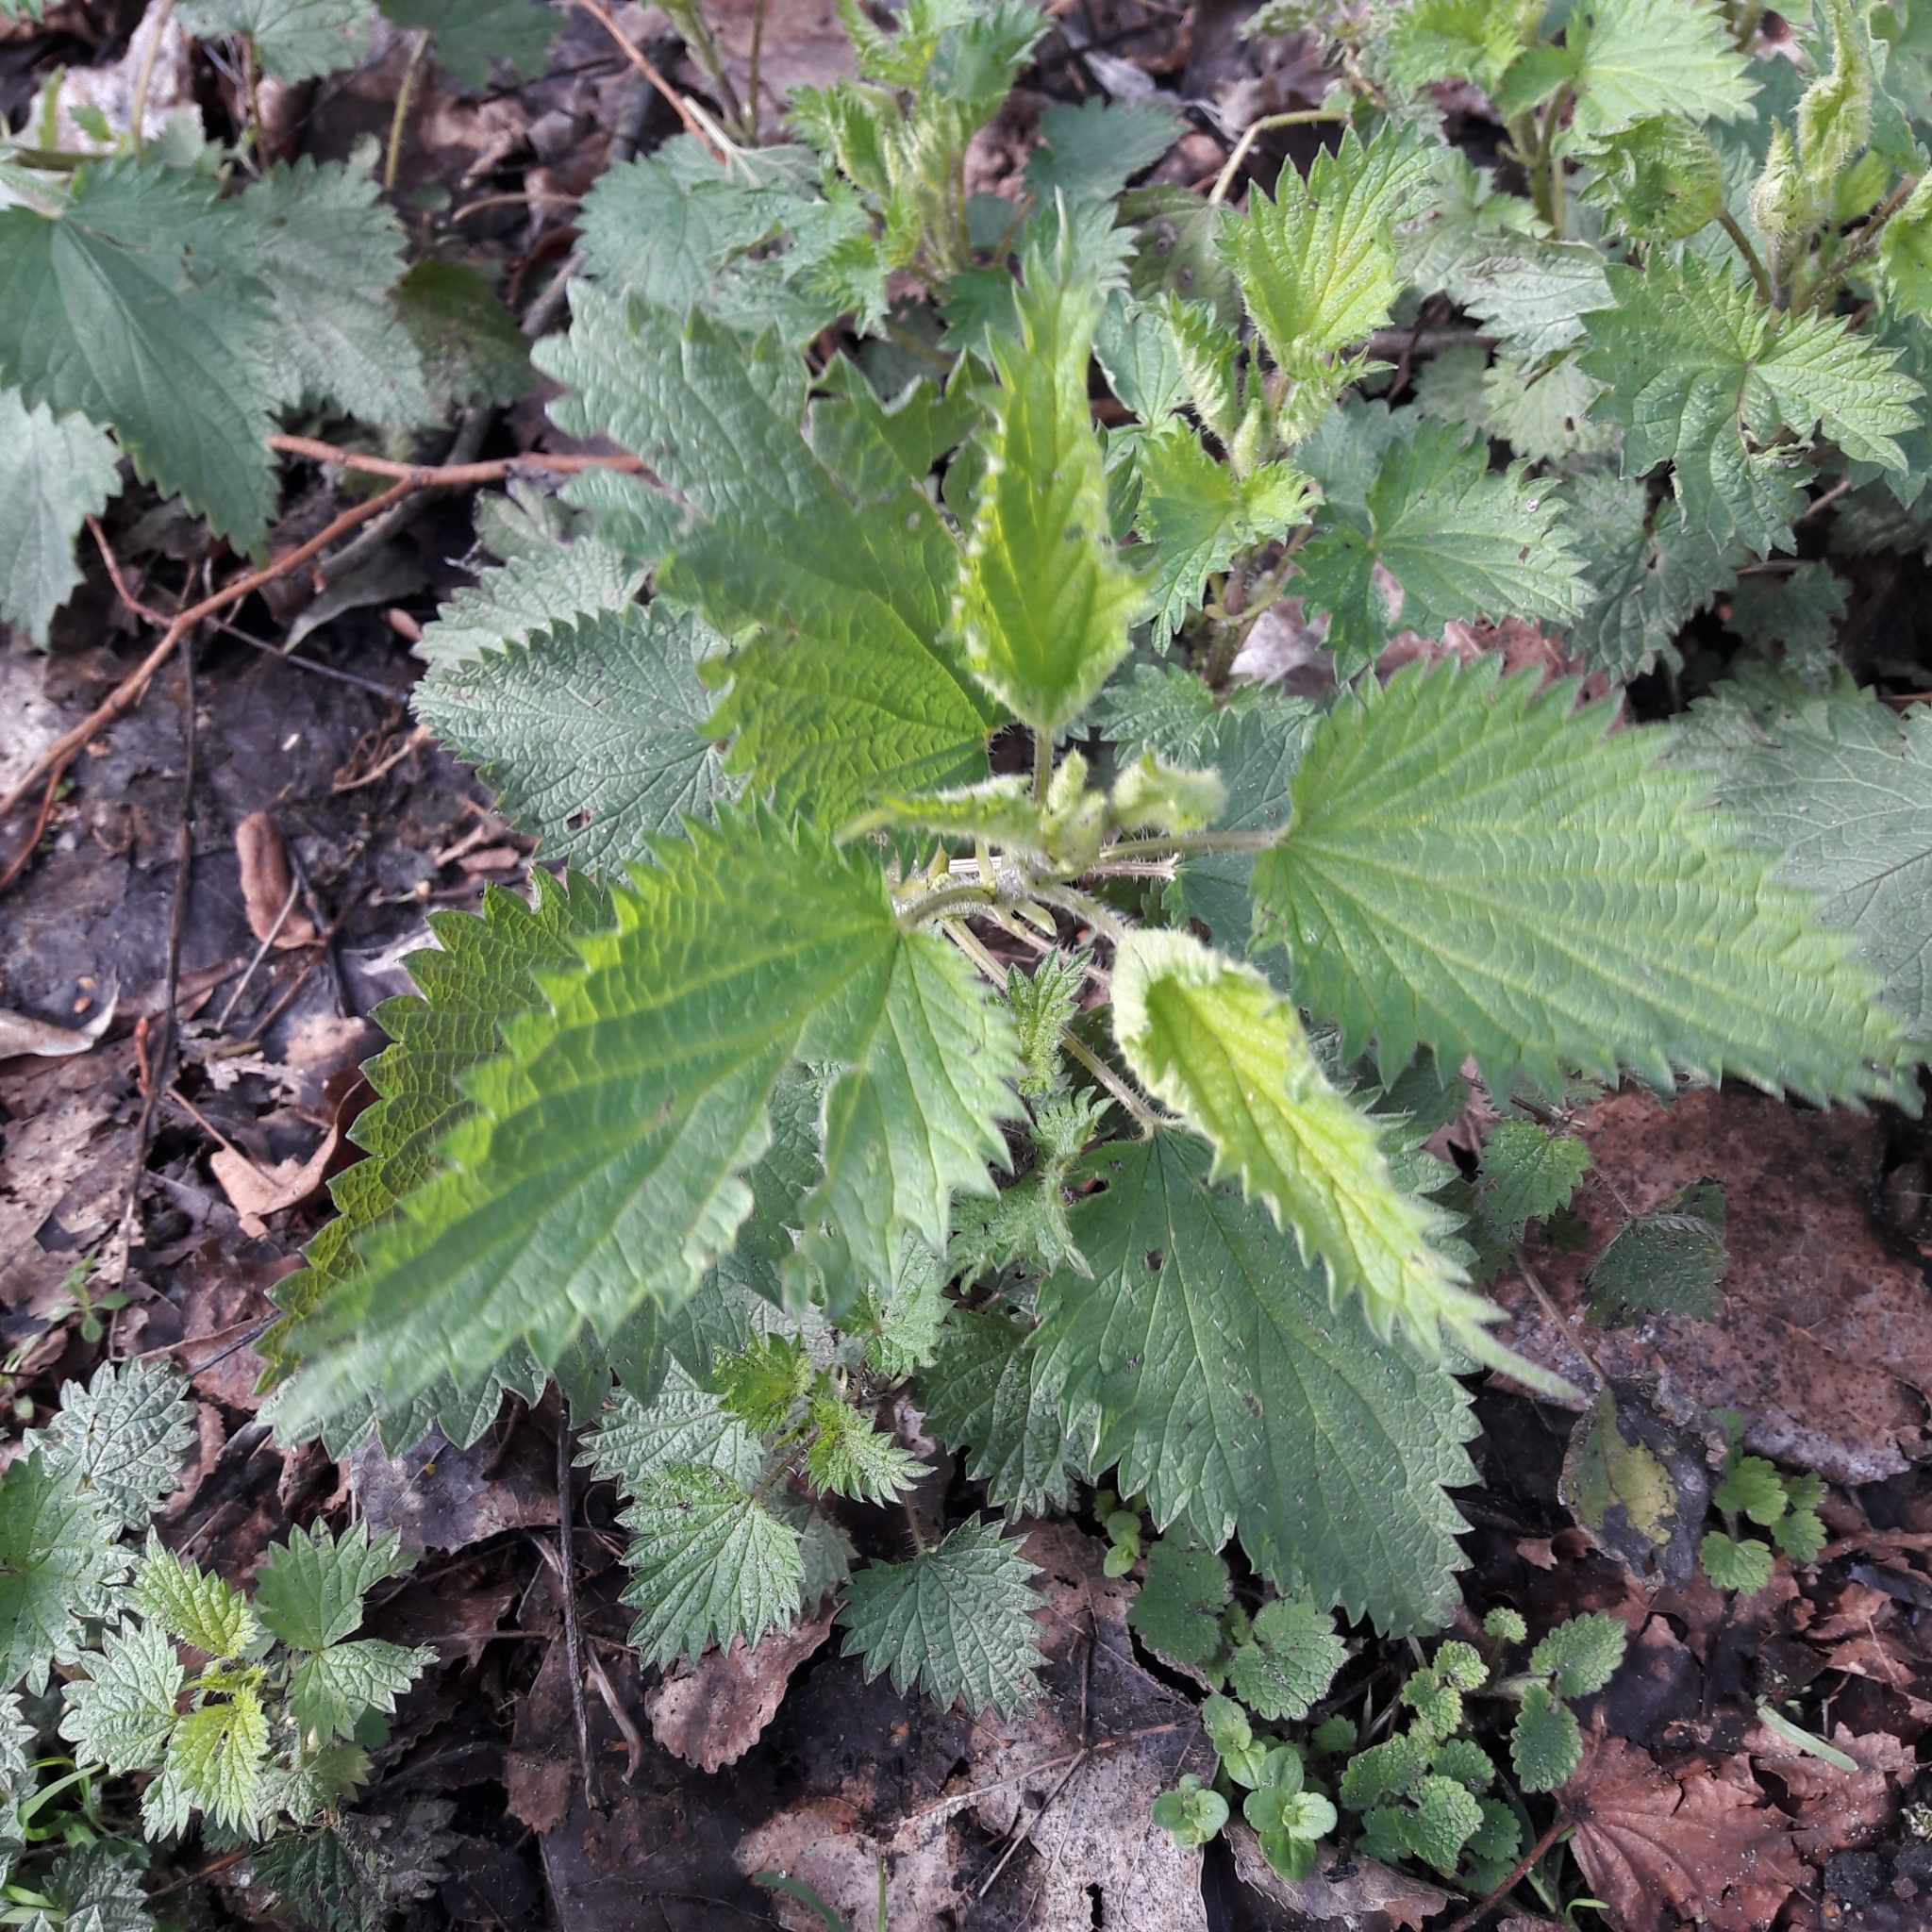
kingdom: Plantae
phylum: Tracheophyta
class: Magnoliopsida
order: Rosales
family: Urticaceae
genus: Urtica
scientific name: Urtica dioica
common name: Common nettle
